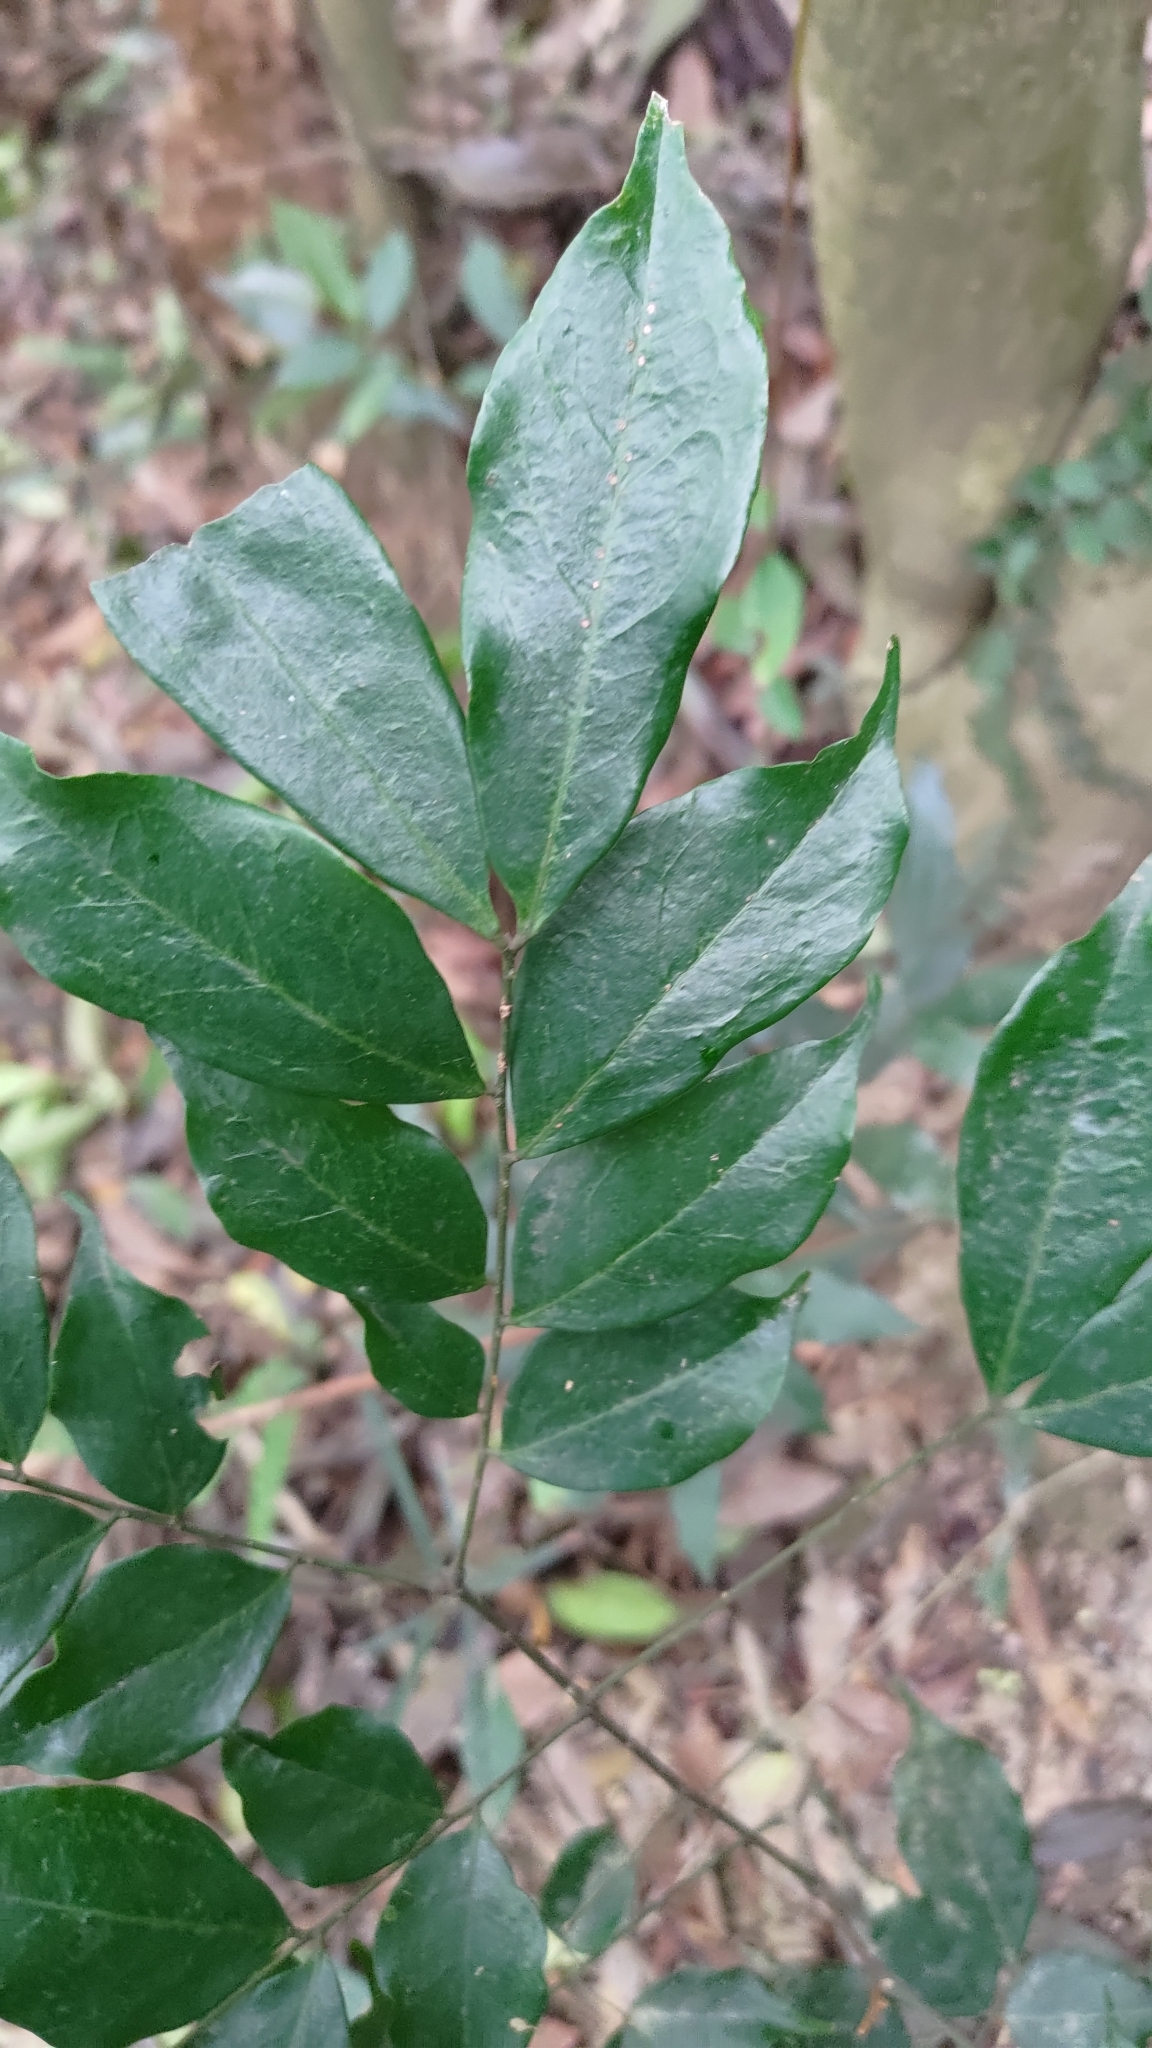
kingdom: Plantae
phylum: Tracheophyta
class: Magnoliopsida
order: Fabales
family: Fabaceae
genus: Archidendron
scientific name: Archidendron lucidum
